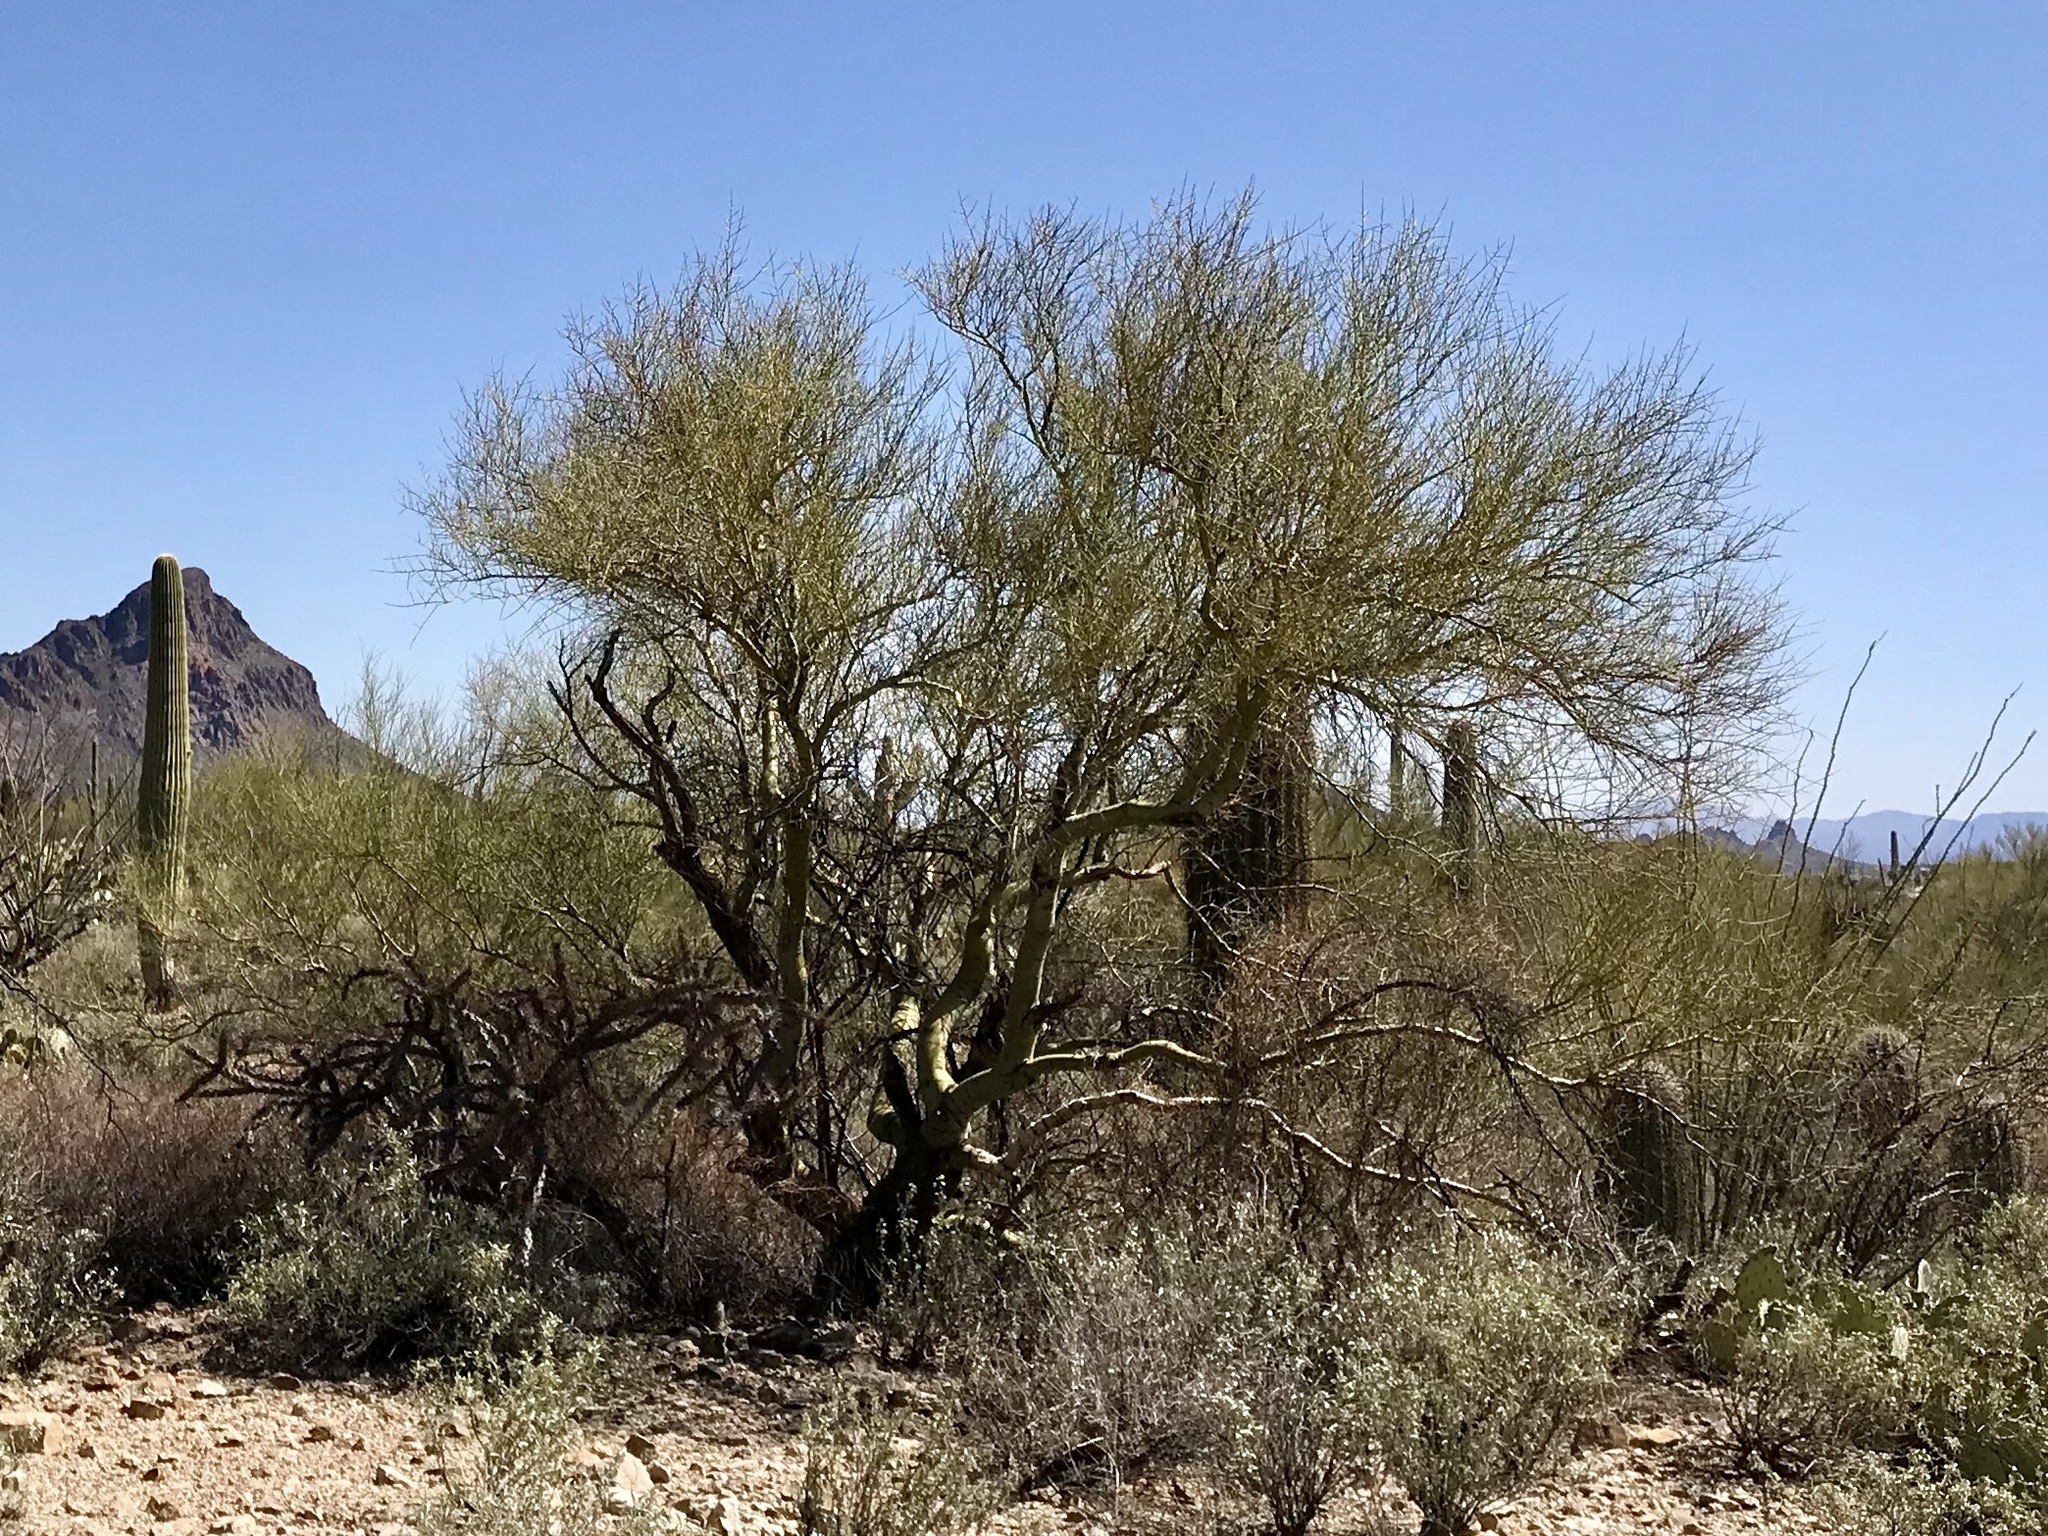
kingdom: Plantae
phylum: Tracheophyta
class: Magnoliopsida
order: Fabales
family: Fabaceae
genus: Parkinsonia
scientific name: Parkinsonia microphylla
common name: Yellow paloverde
